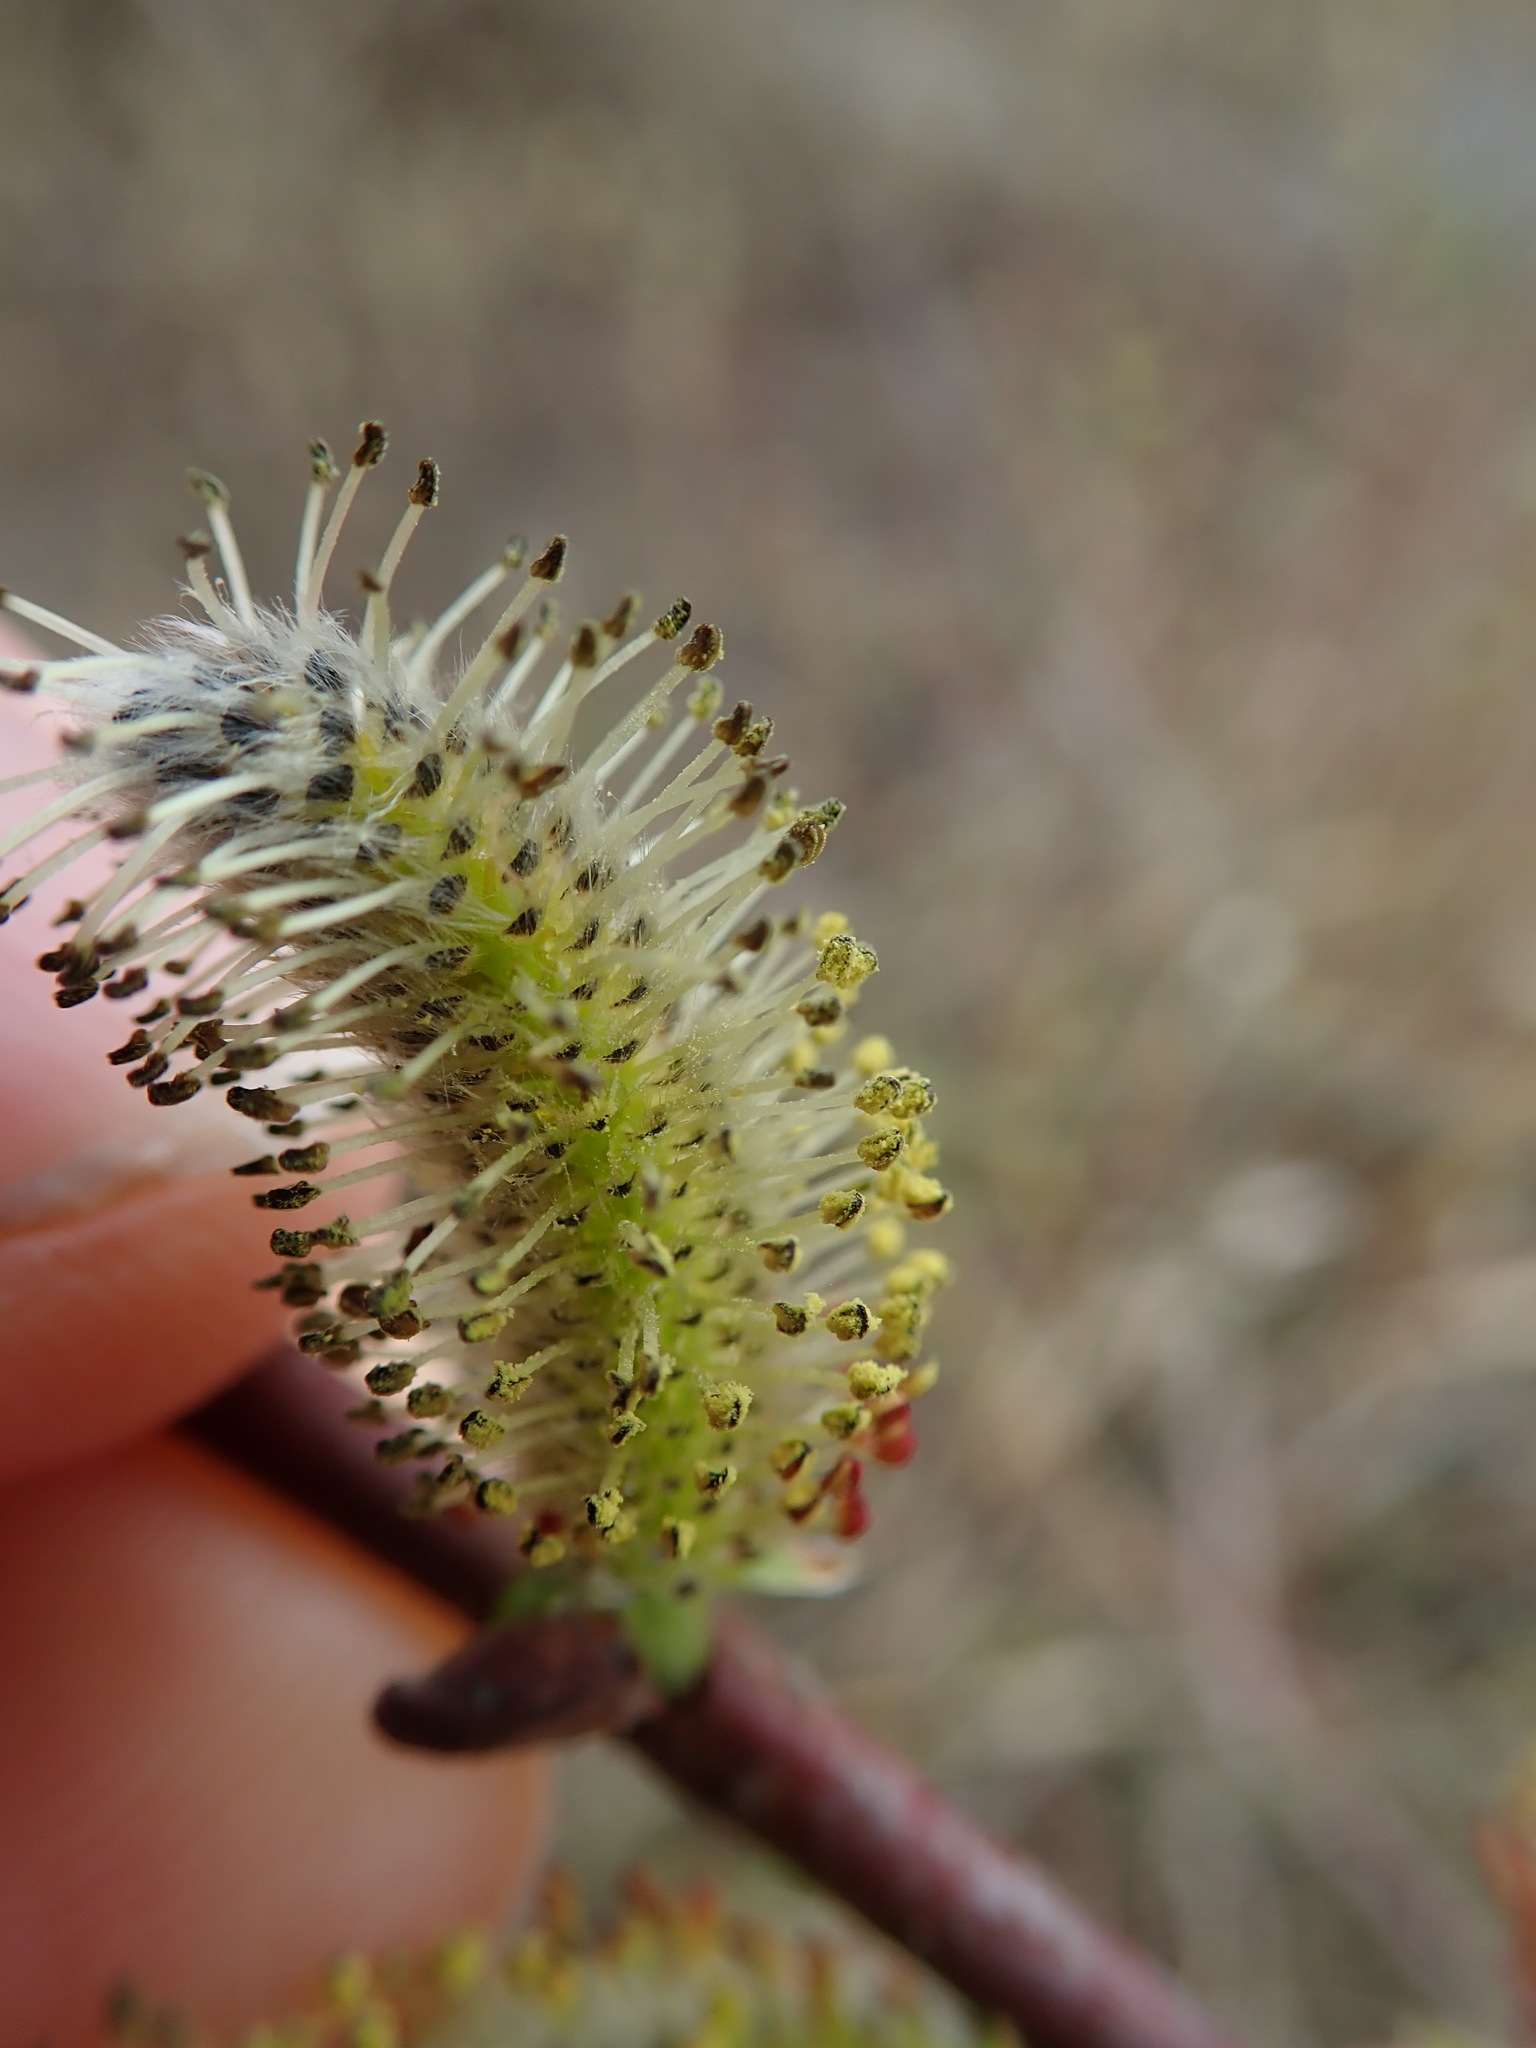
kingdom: Plantae
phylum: Tracheophyta
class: Magnoliopsida
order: Malpighiales
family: Salicaceae
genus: Salix
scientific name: Salix hookeriana
